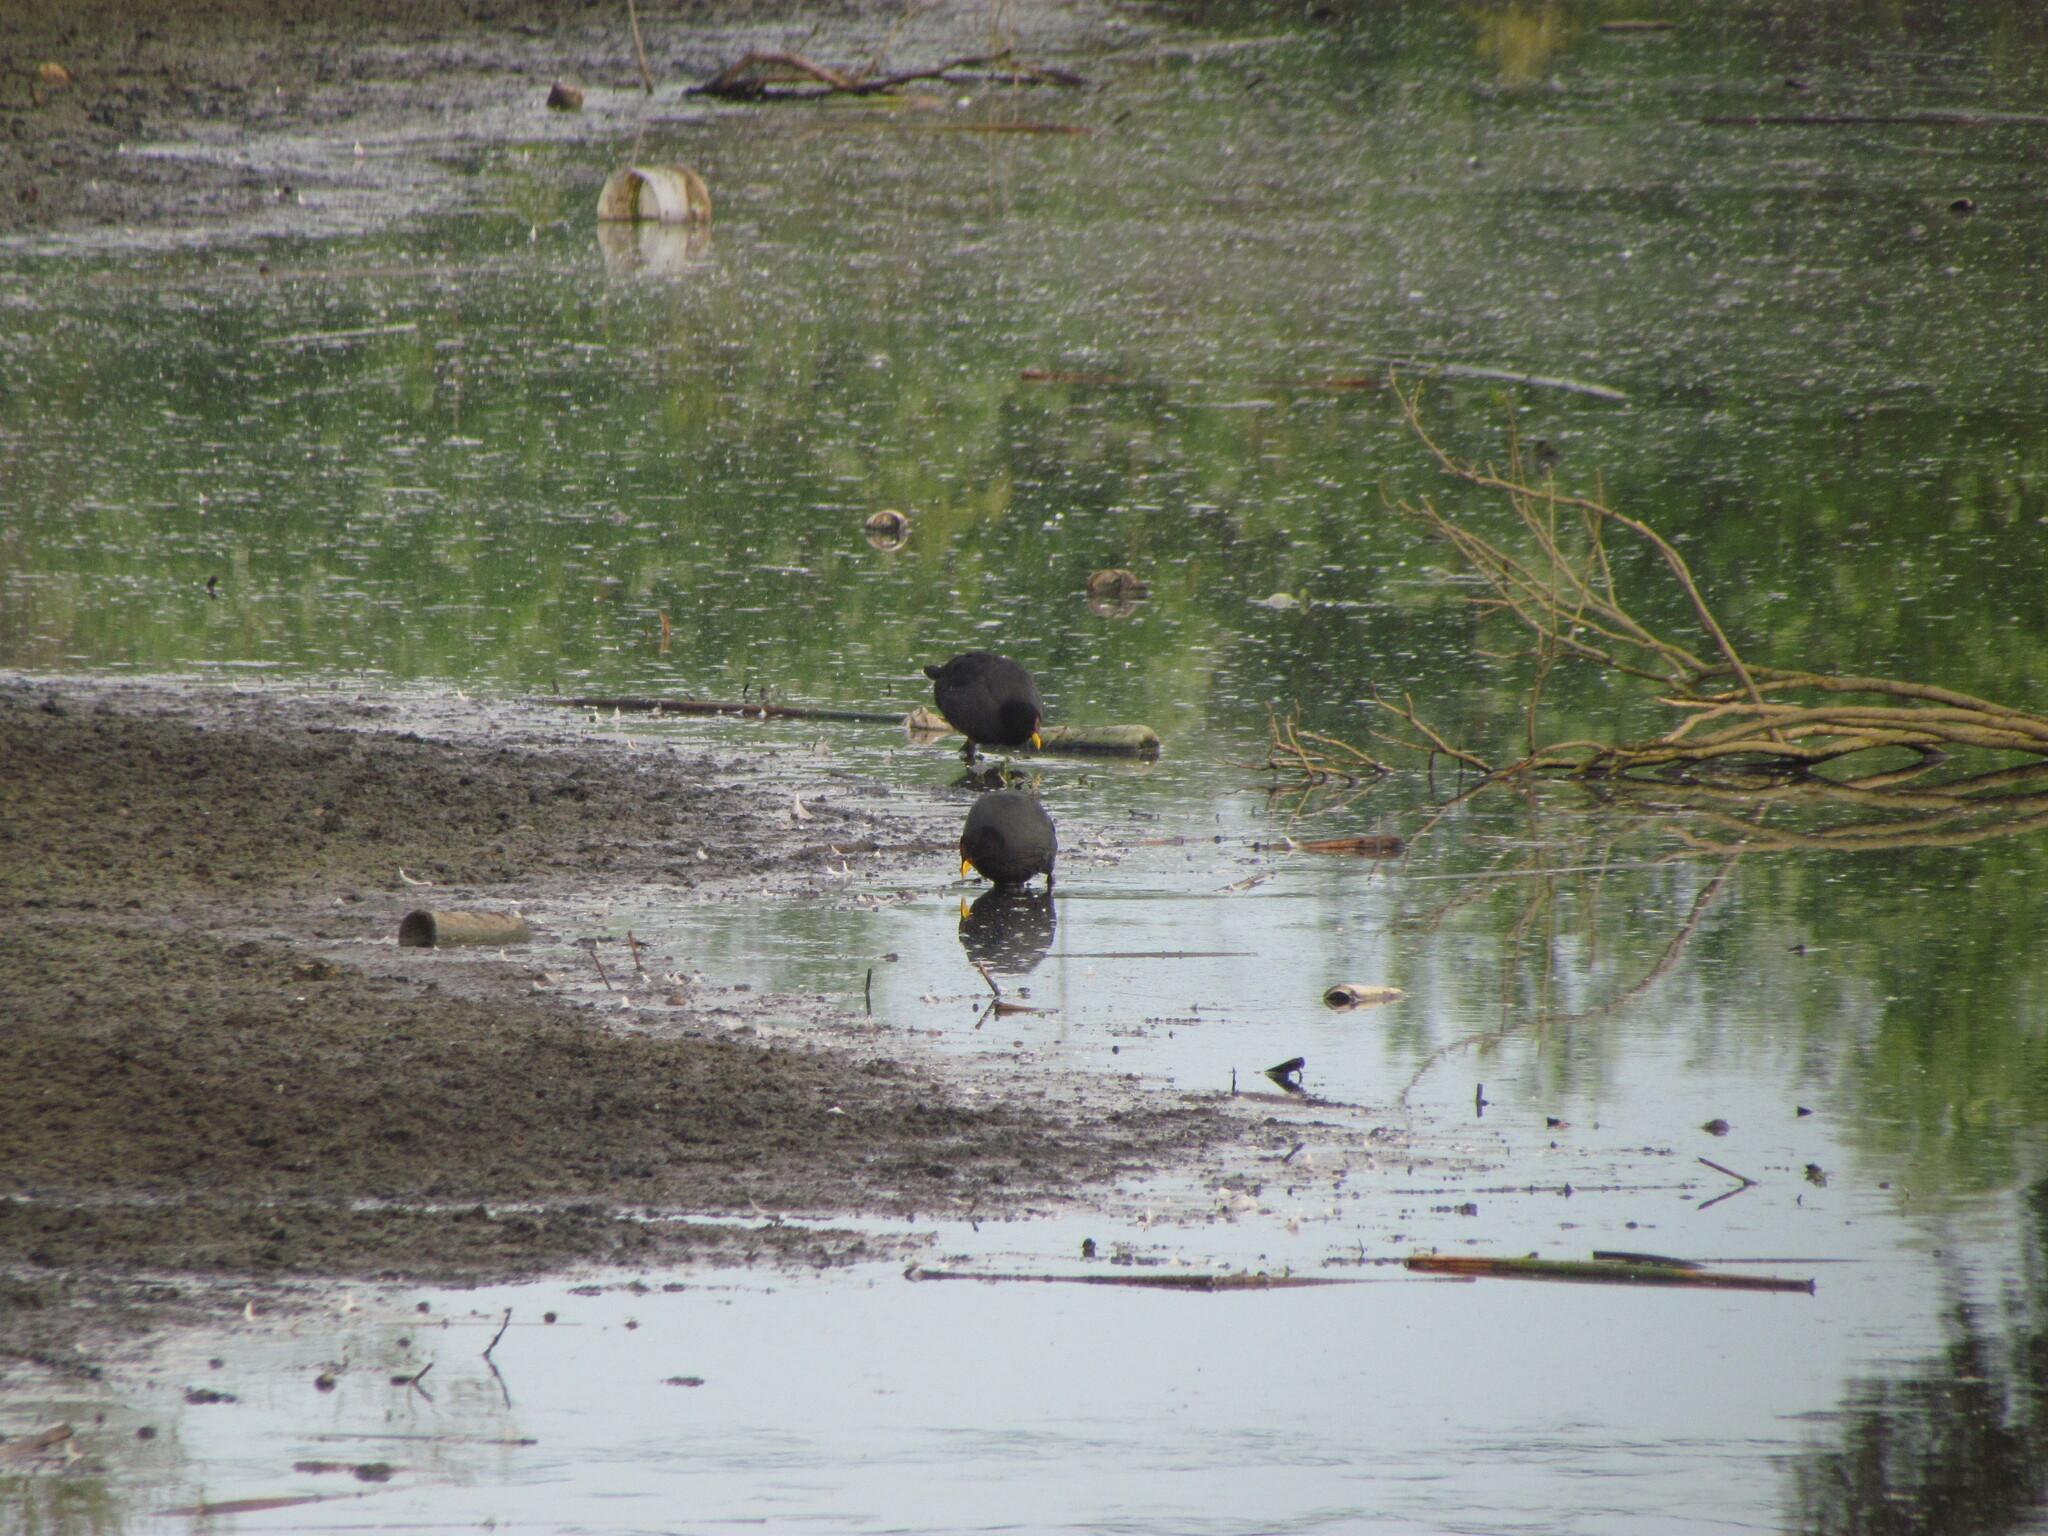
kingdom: Animalia
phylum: Chordata
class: Aves
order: Gruiformes
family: Rallidae
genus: Fulica
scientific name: Fulica rufifrons
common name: Red-fronted coot
